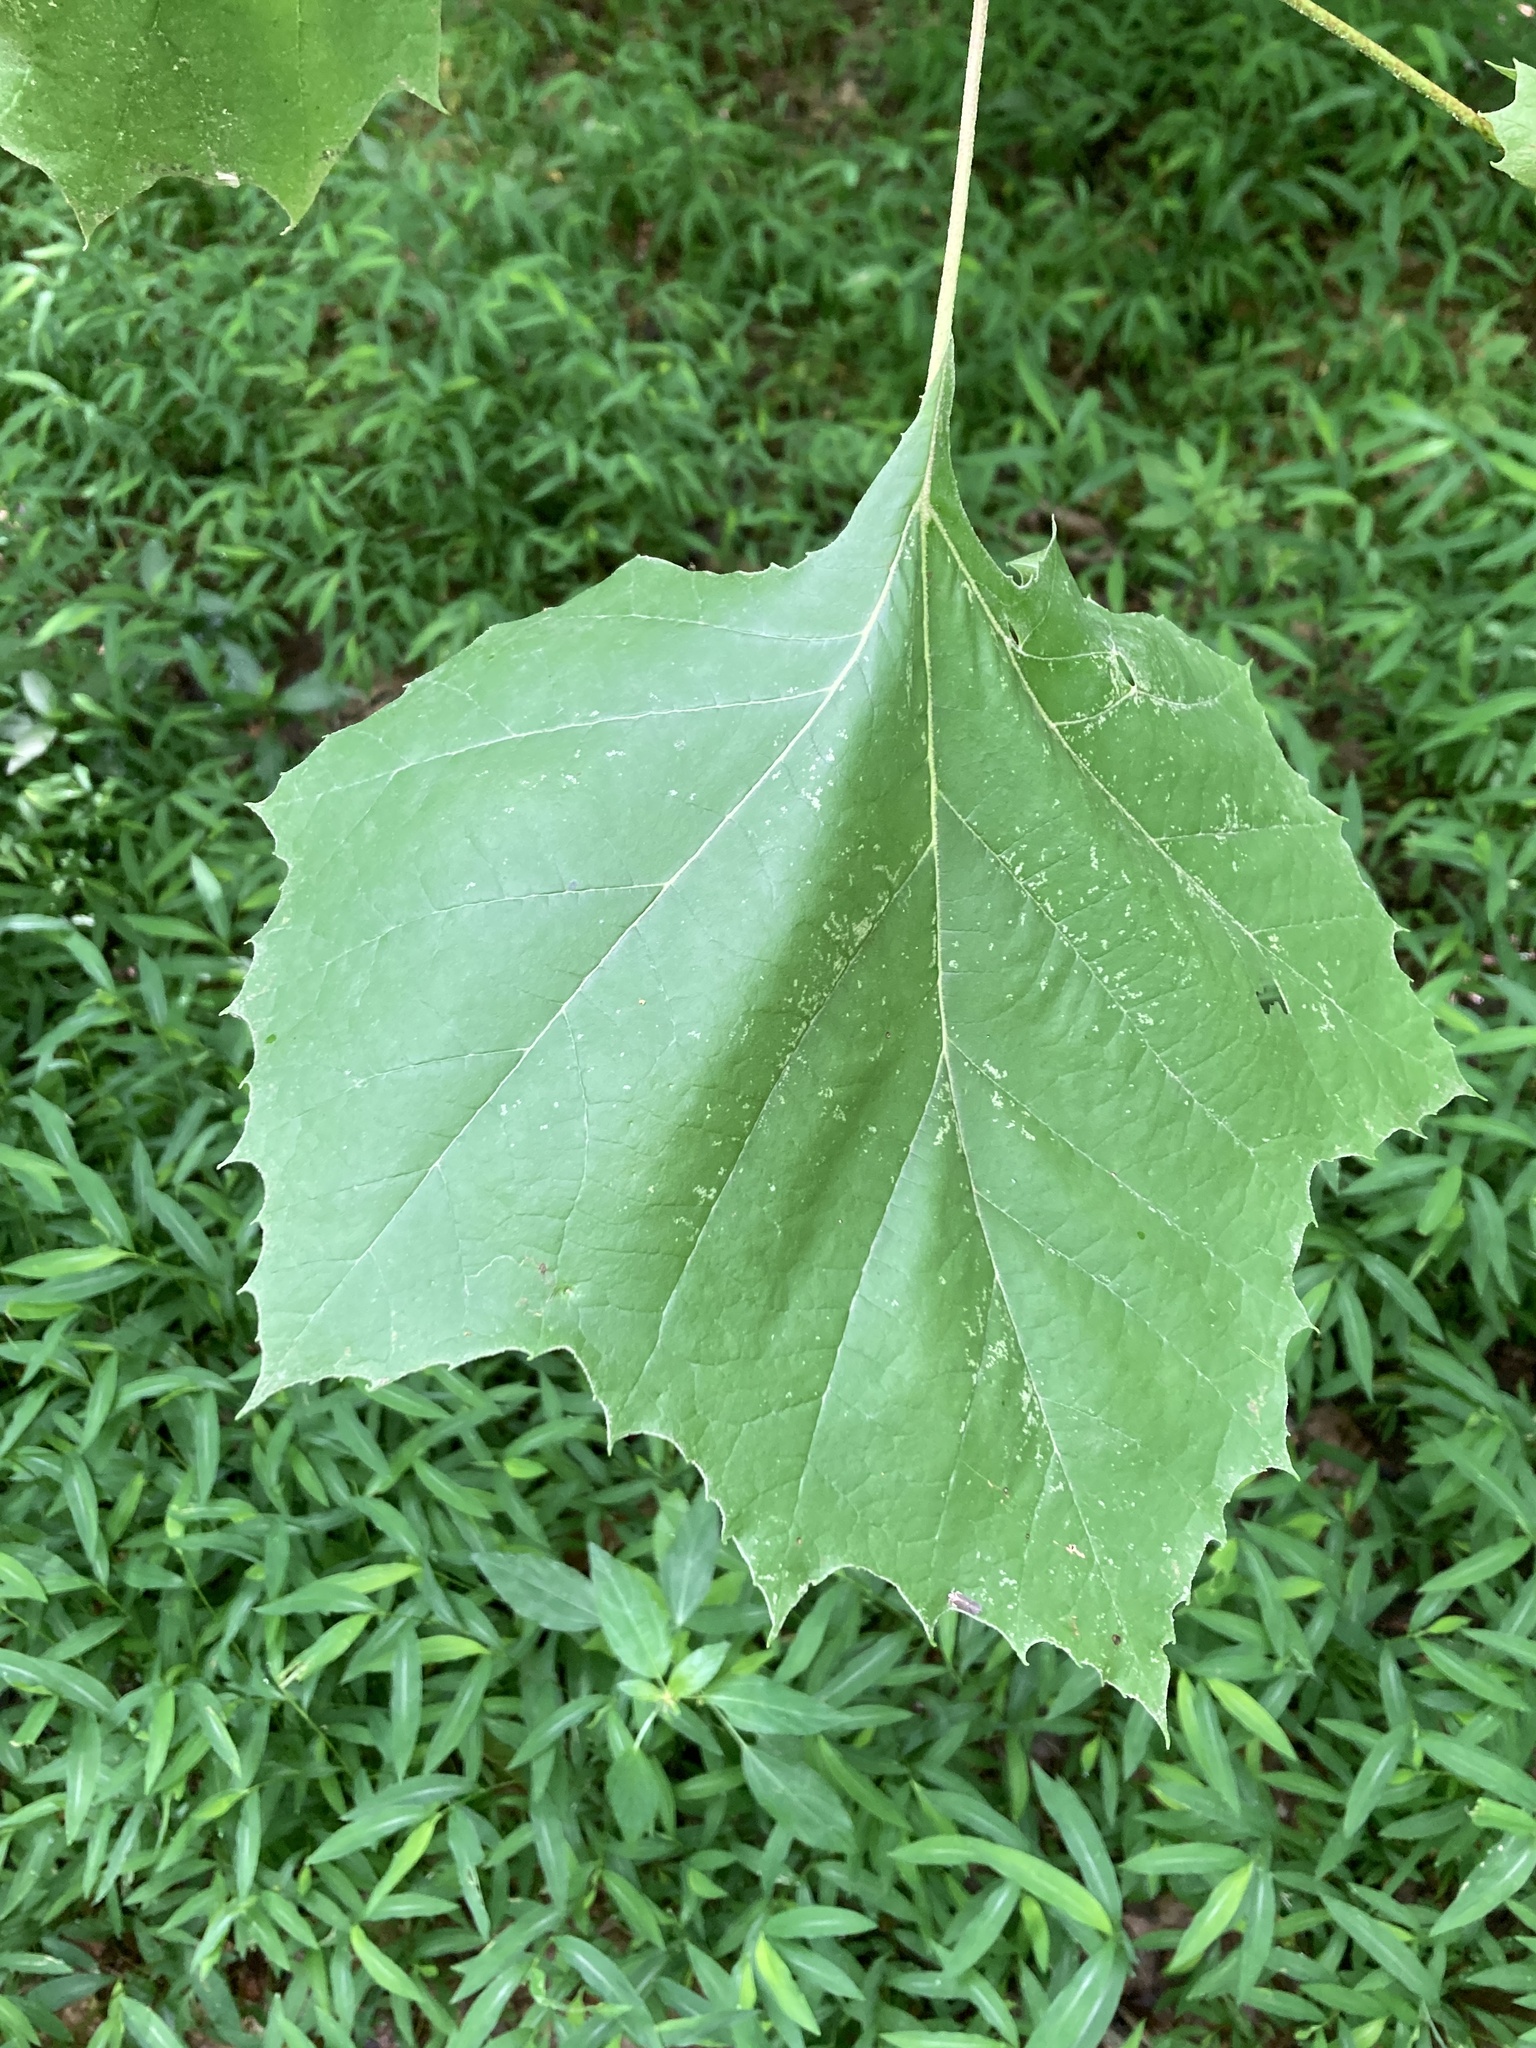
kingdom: Plantae
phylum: Tracheophyta
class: Magnoliopsida
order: Proteales
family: Platanaceae
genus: Platanus
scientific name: Platanus occidentalis
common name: American sycamore
